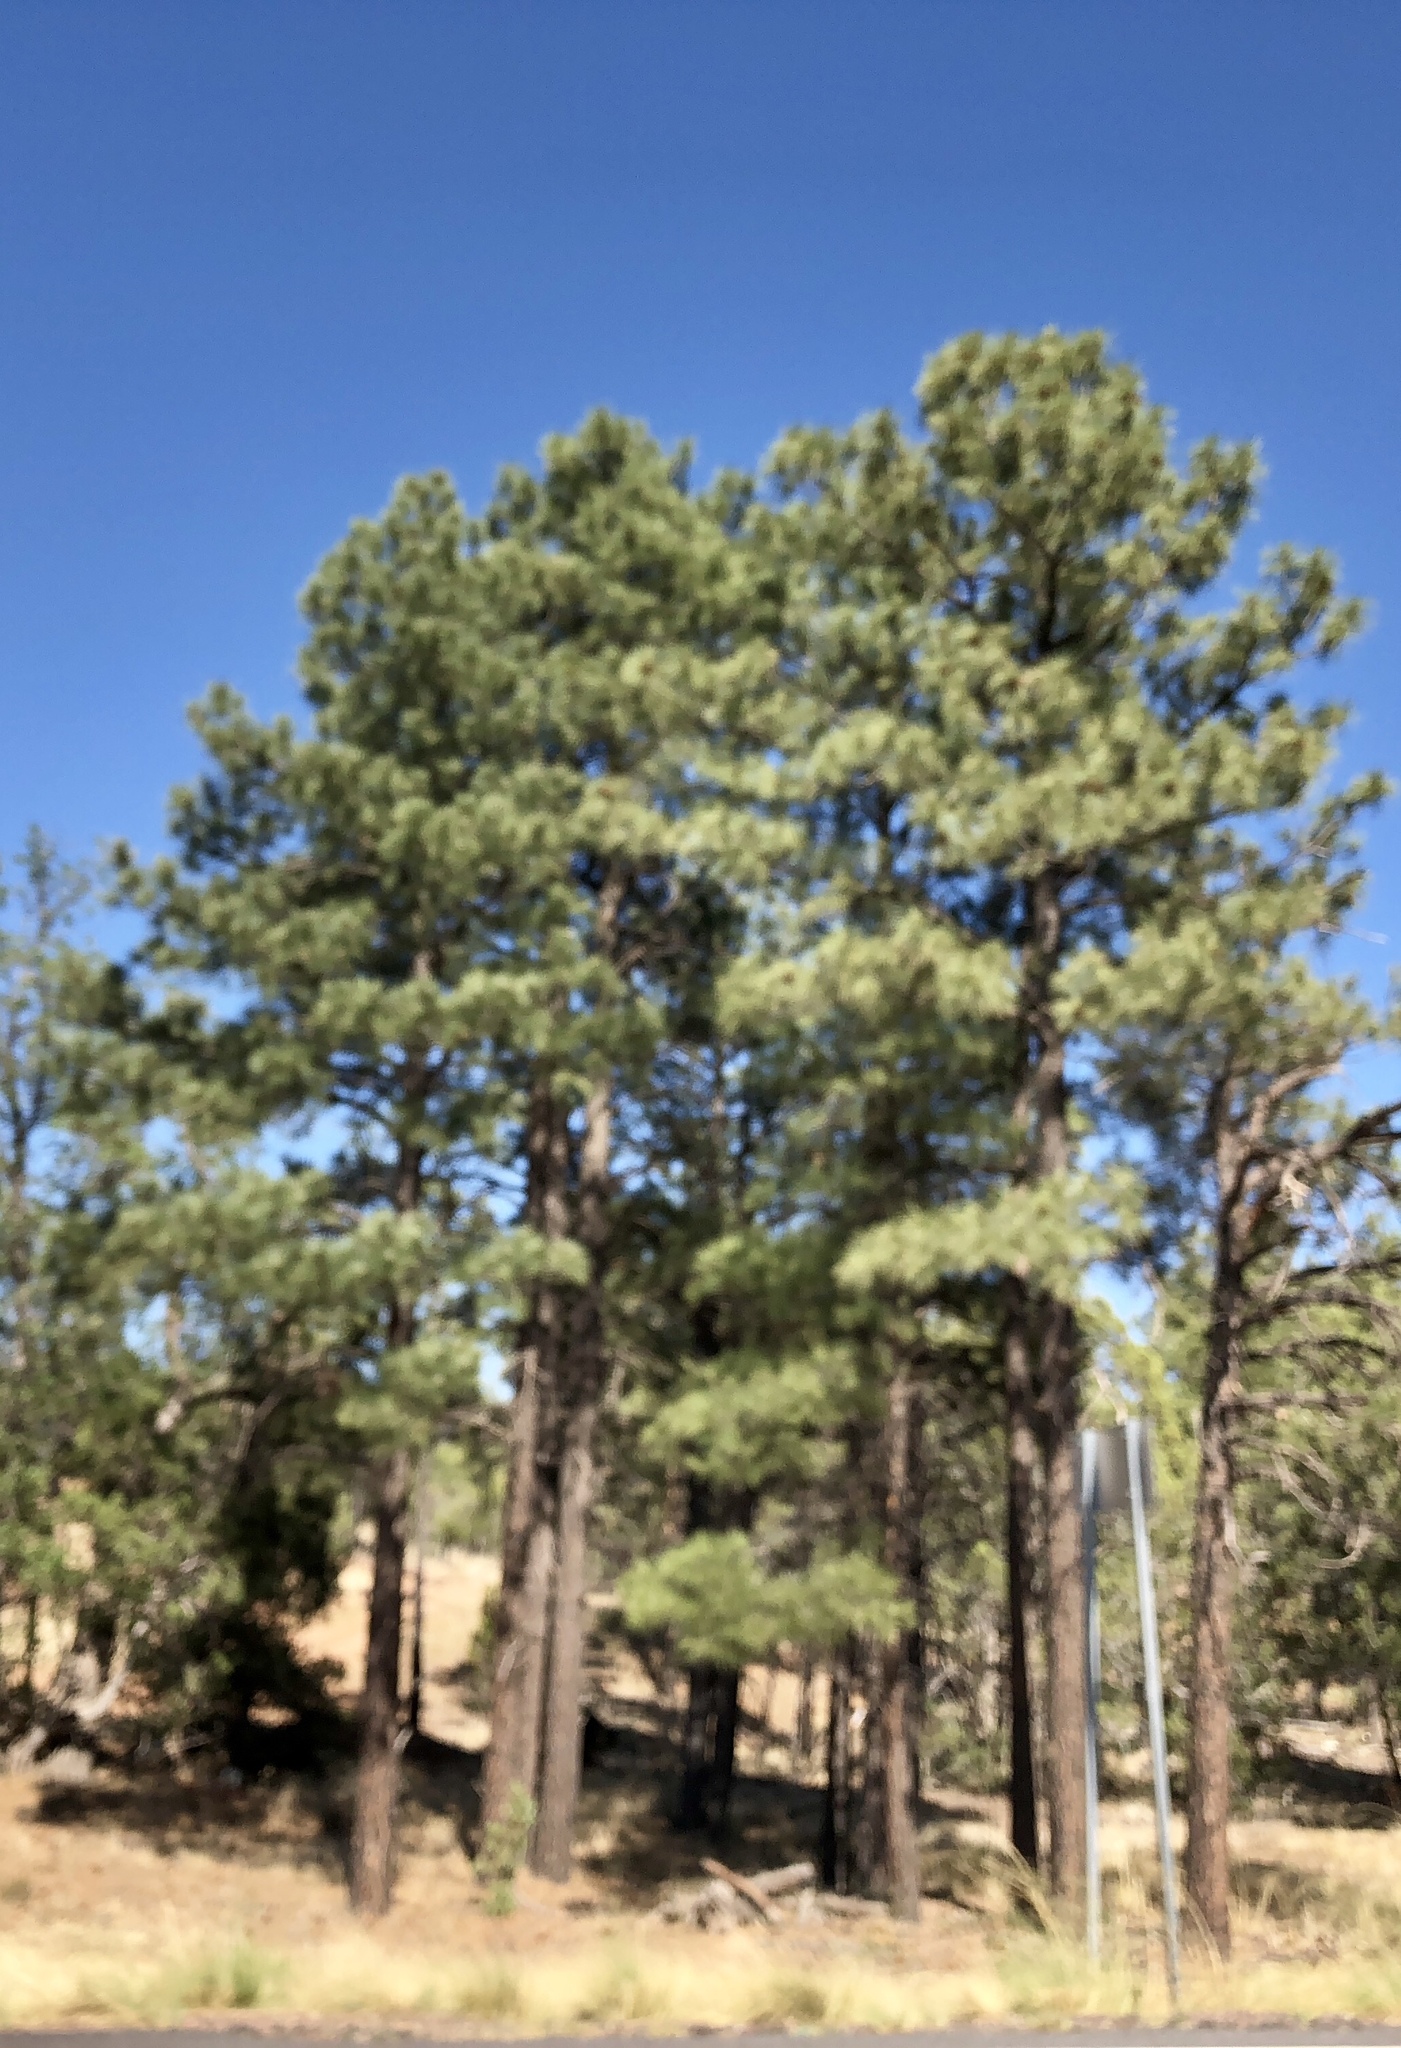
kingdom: Plantae
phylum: Tracheophyta
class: Pinopsida
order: Pinales
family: Pinaceae
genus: Pinus
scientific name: Pinus ponderosa
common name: Western yellow-pine
